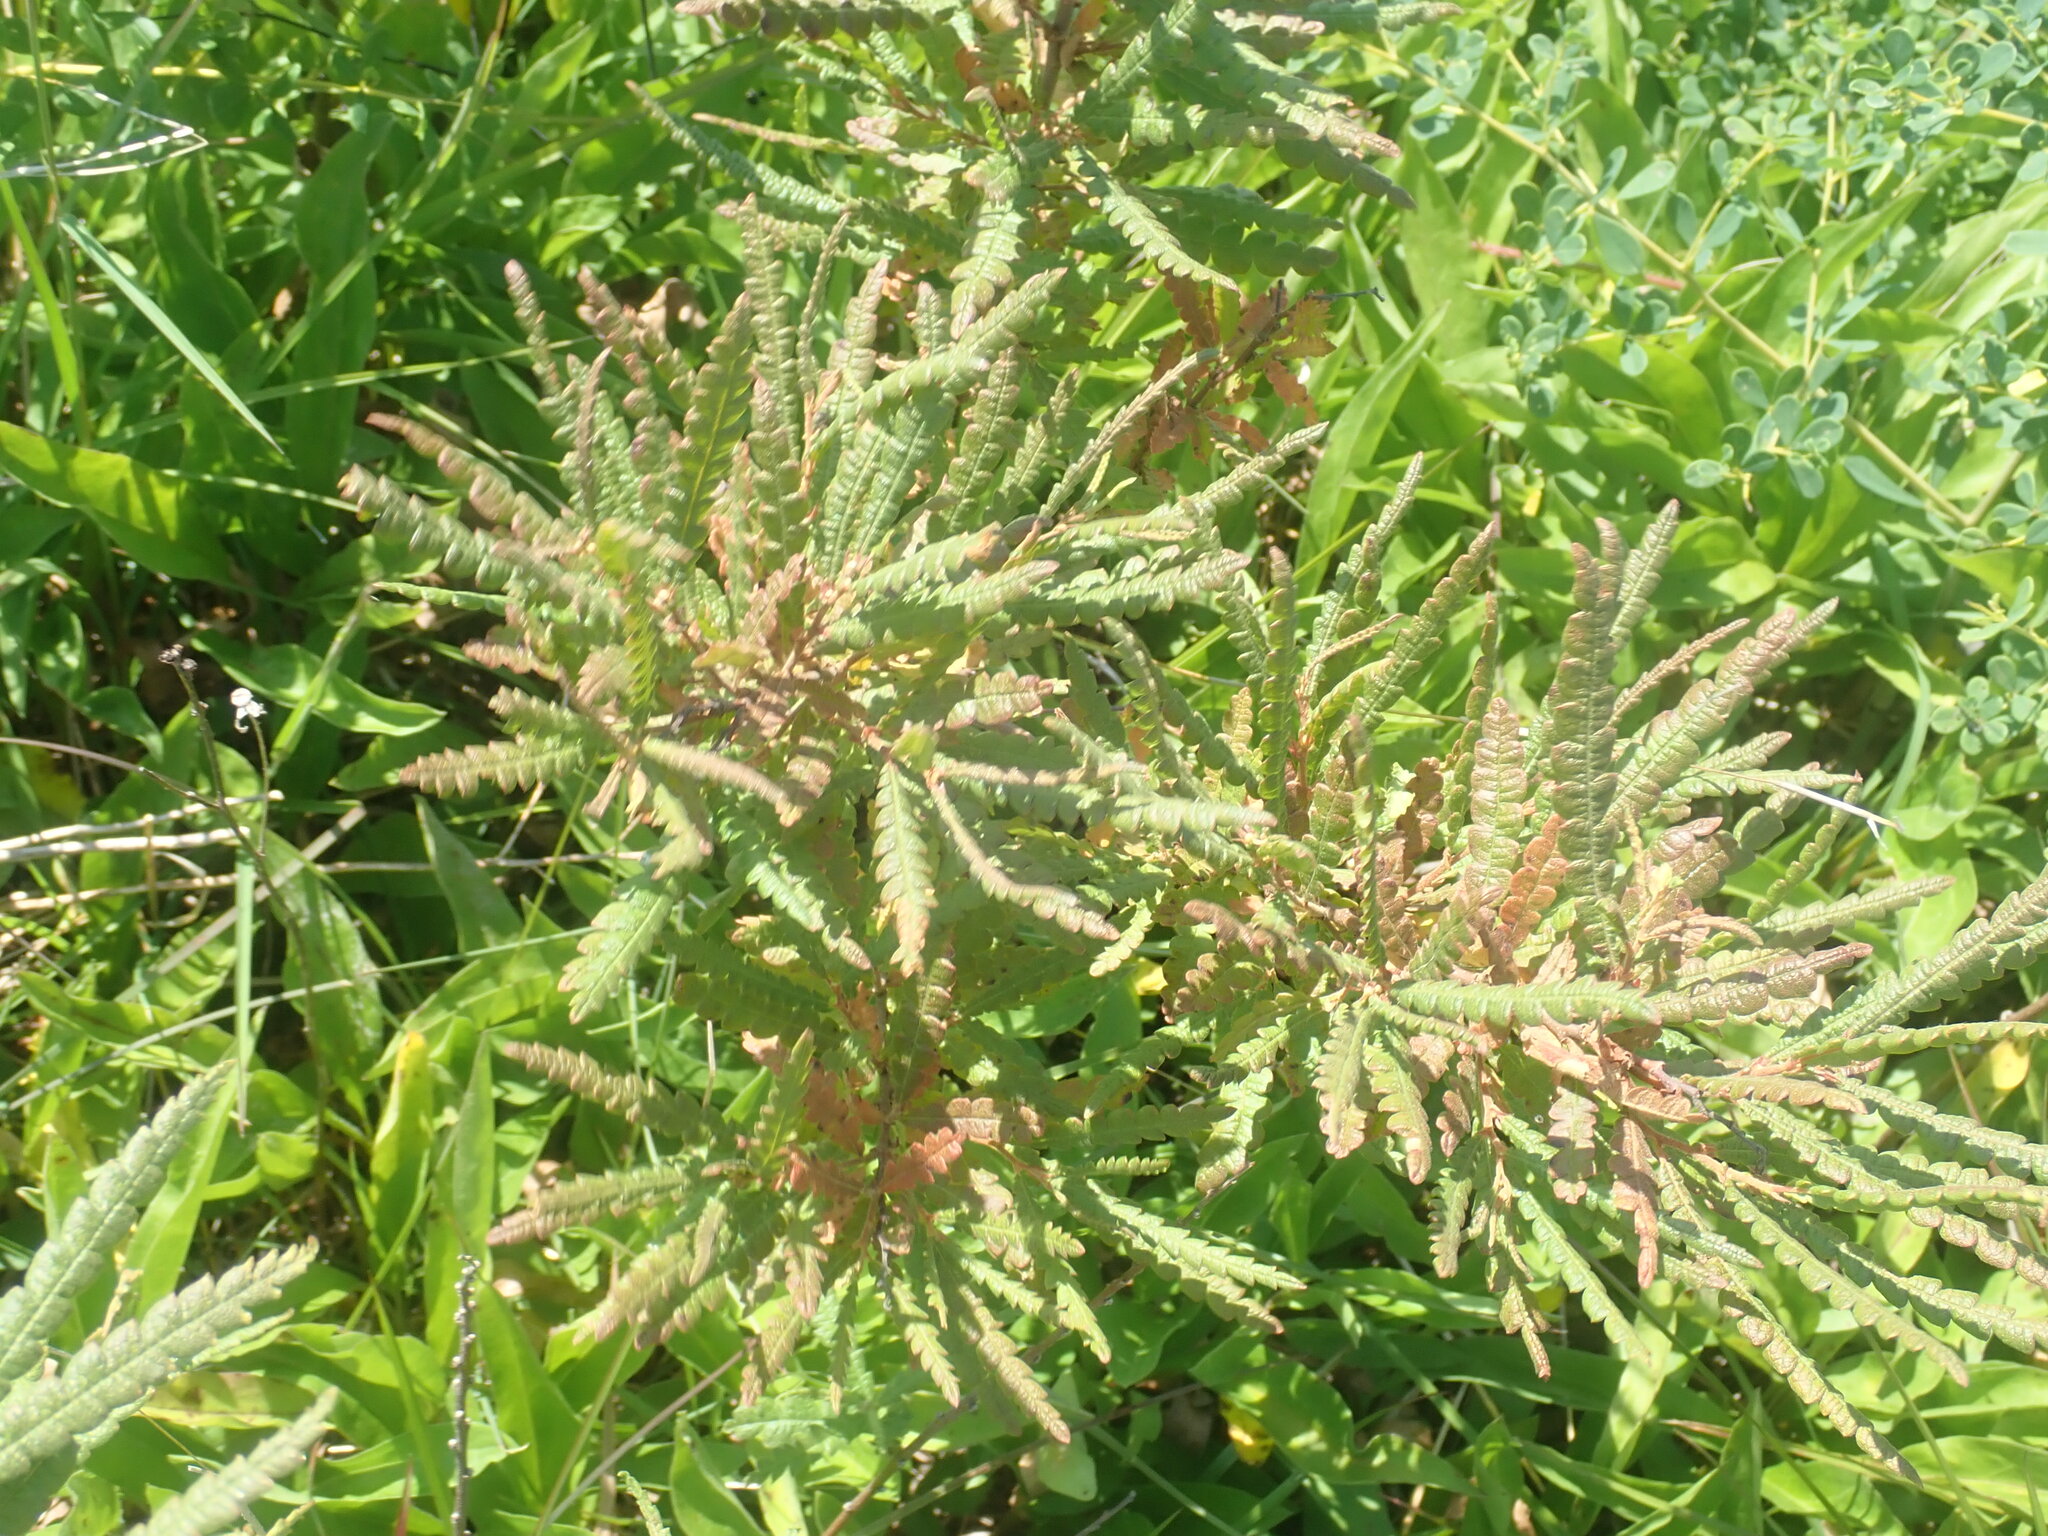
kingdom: Plantae
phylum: Tracheophyta
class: Magnoliopsida
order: Fagales
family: Myricaceae
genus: Comptonia
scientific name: Comptonia peregrina
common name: Sweet-fern
